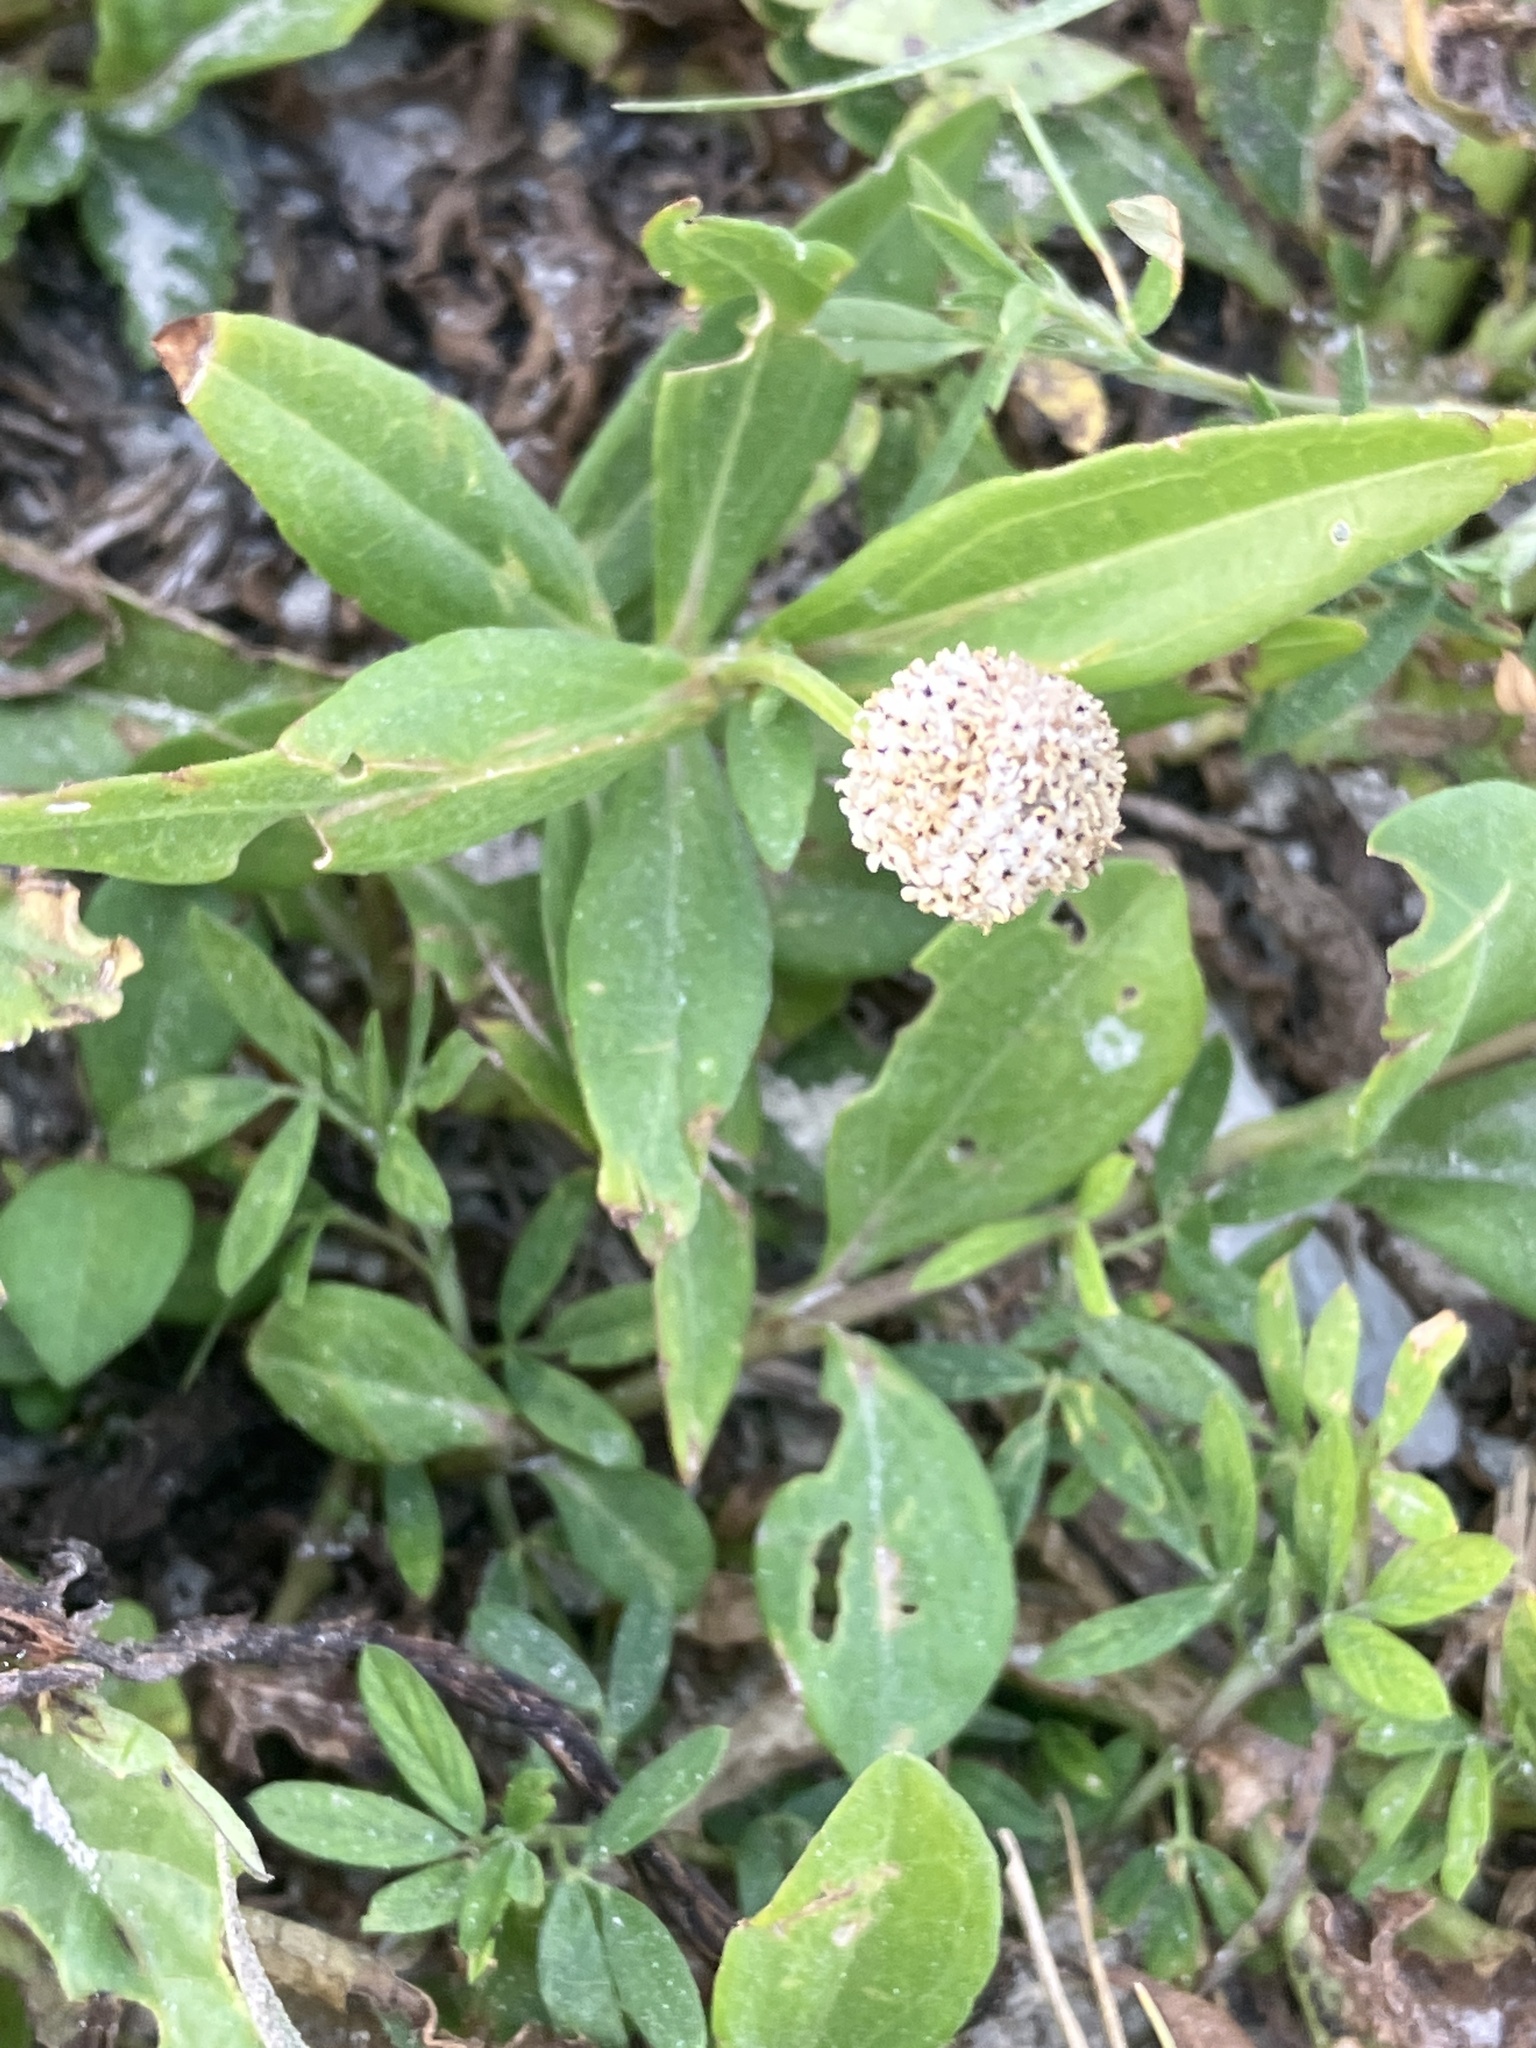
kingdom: Plantae
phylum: Tracheophyta
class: Magnoliopsida
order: Asterales
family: Asteraceae
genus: Spilanthes
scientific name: Spilanthes urens
